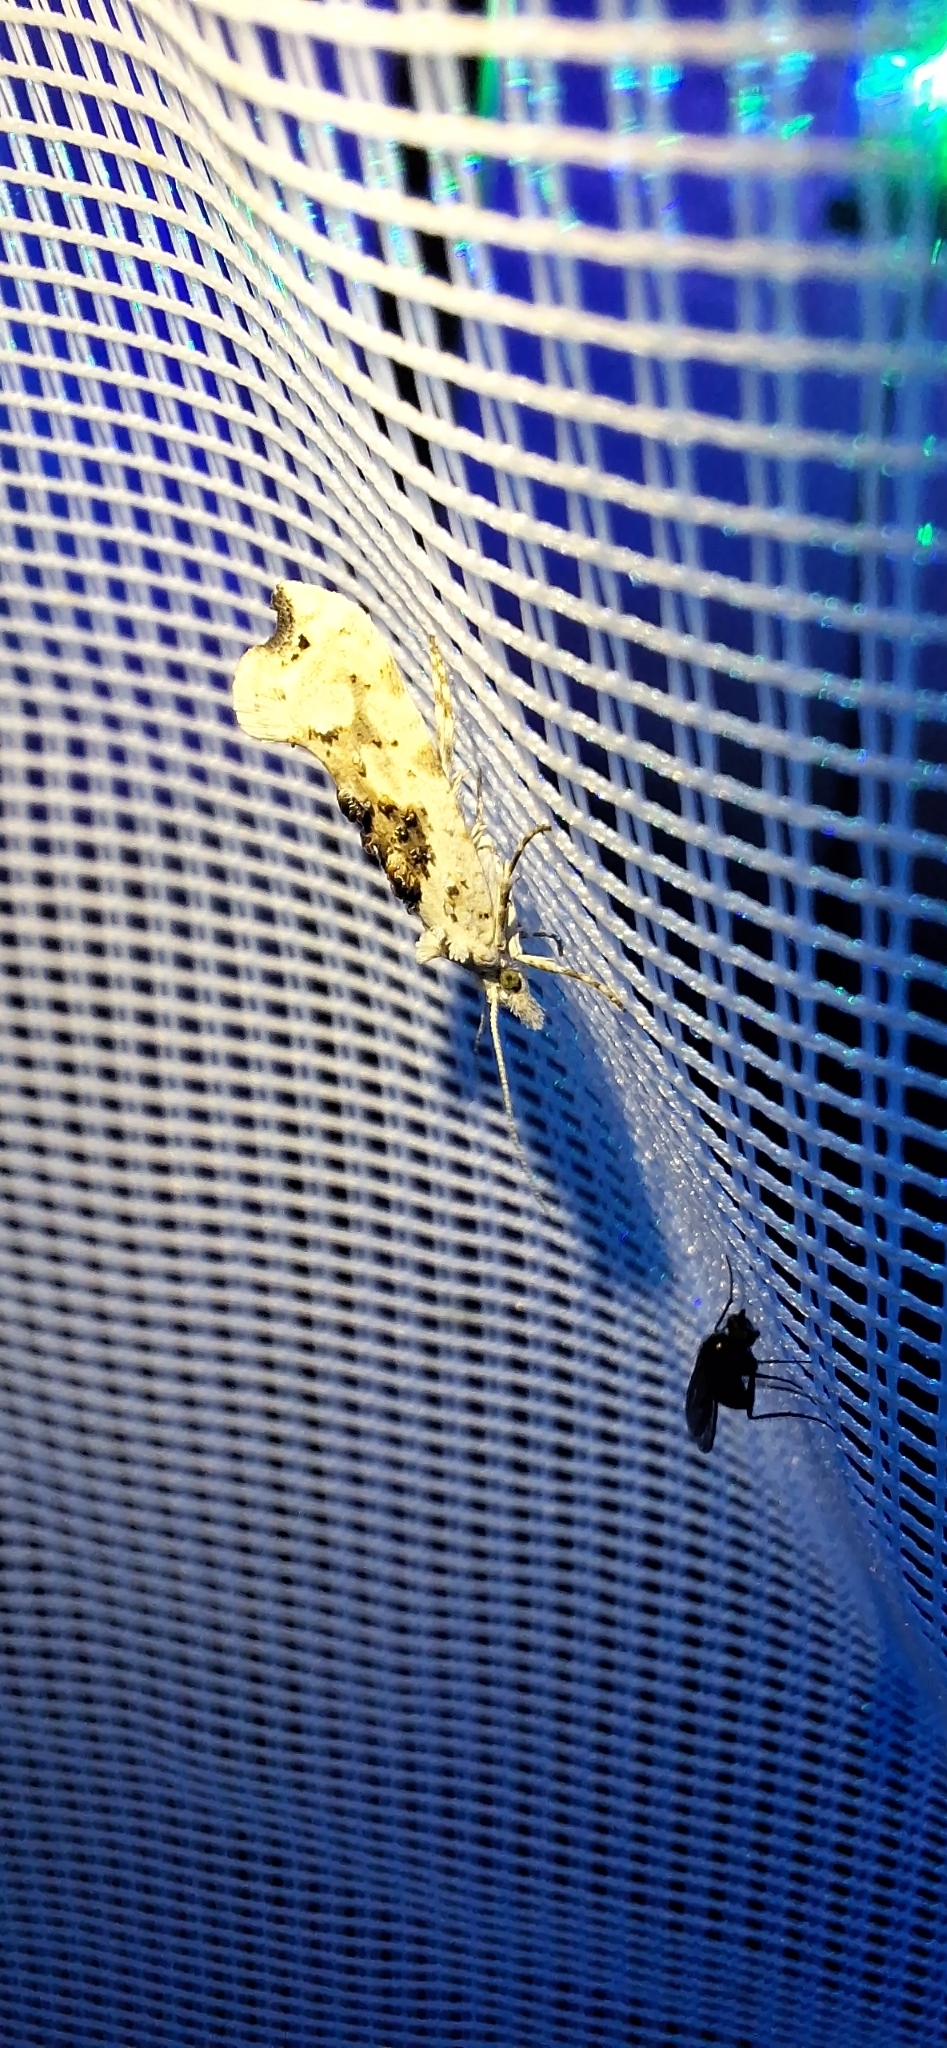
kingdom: Animalia
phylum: Arthropoda
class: Insecta
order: Lepidoptera
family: Plutellidae
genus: Ypsolophus
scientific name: Ypsolophus asperella
